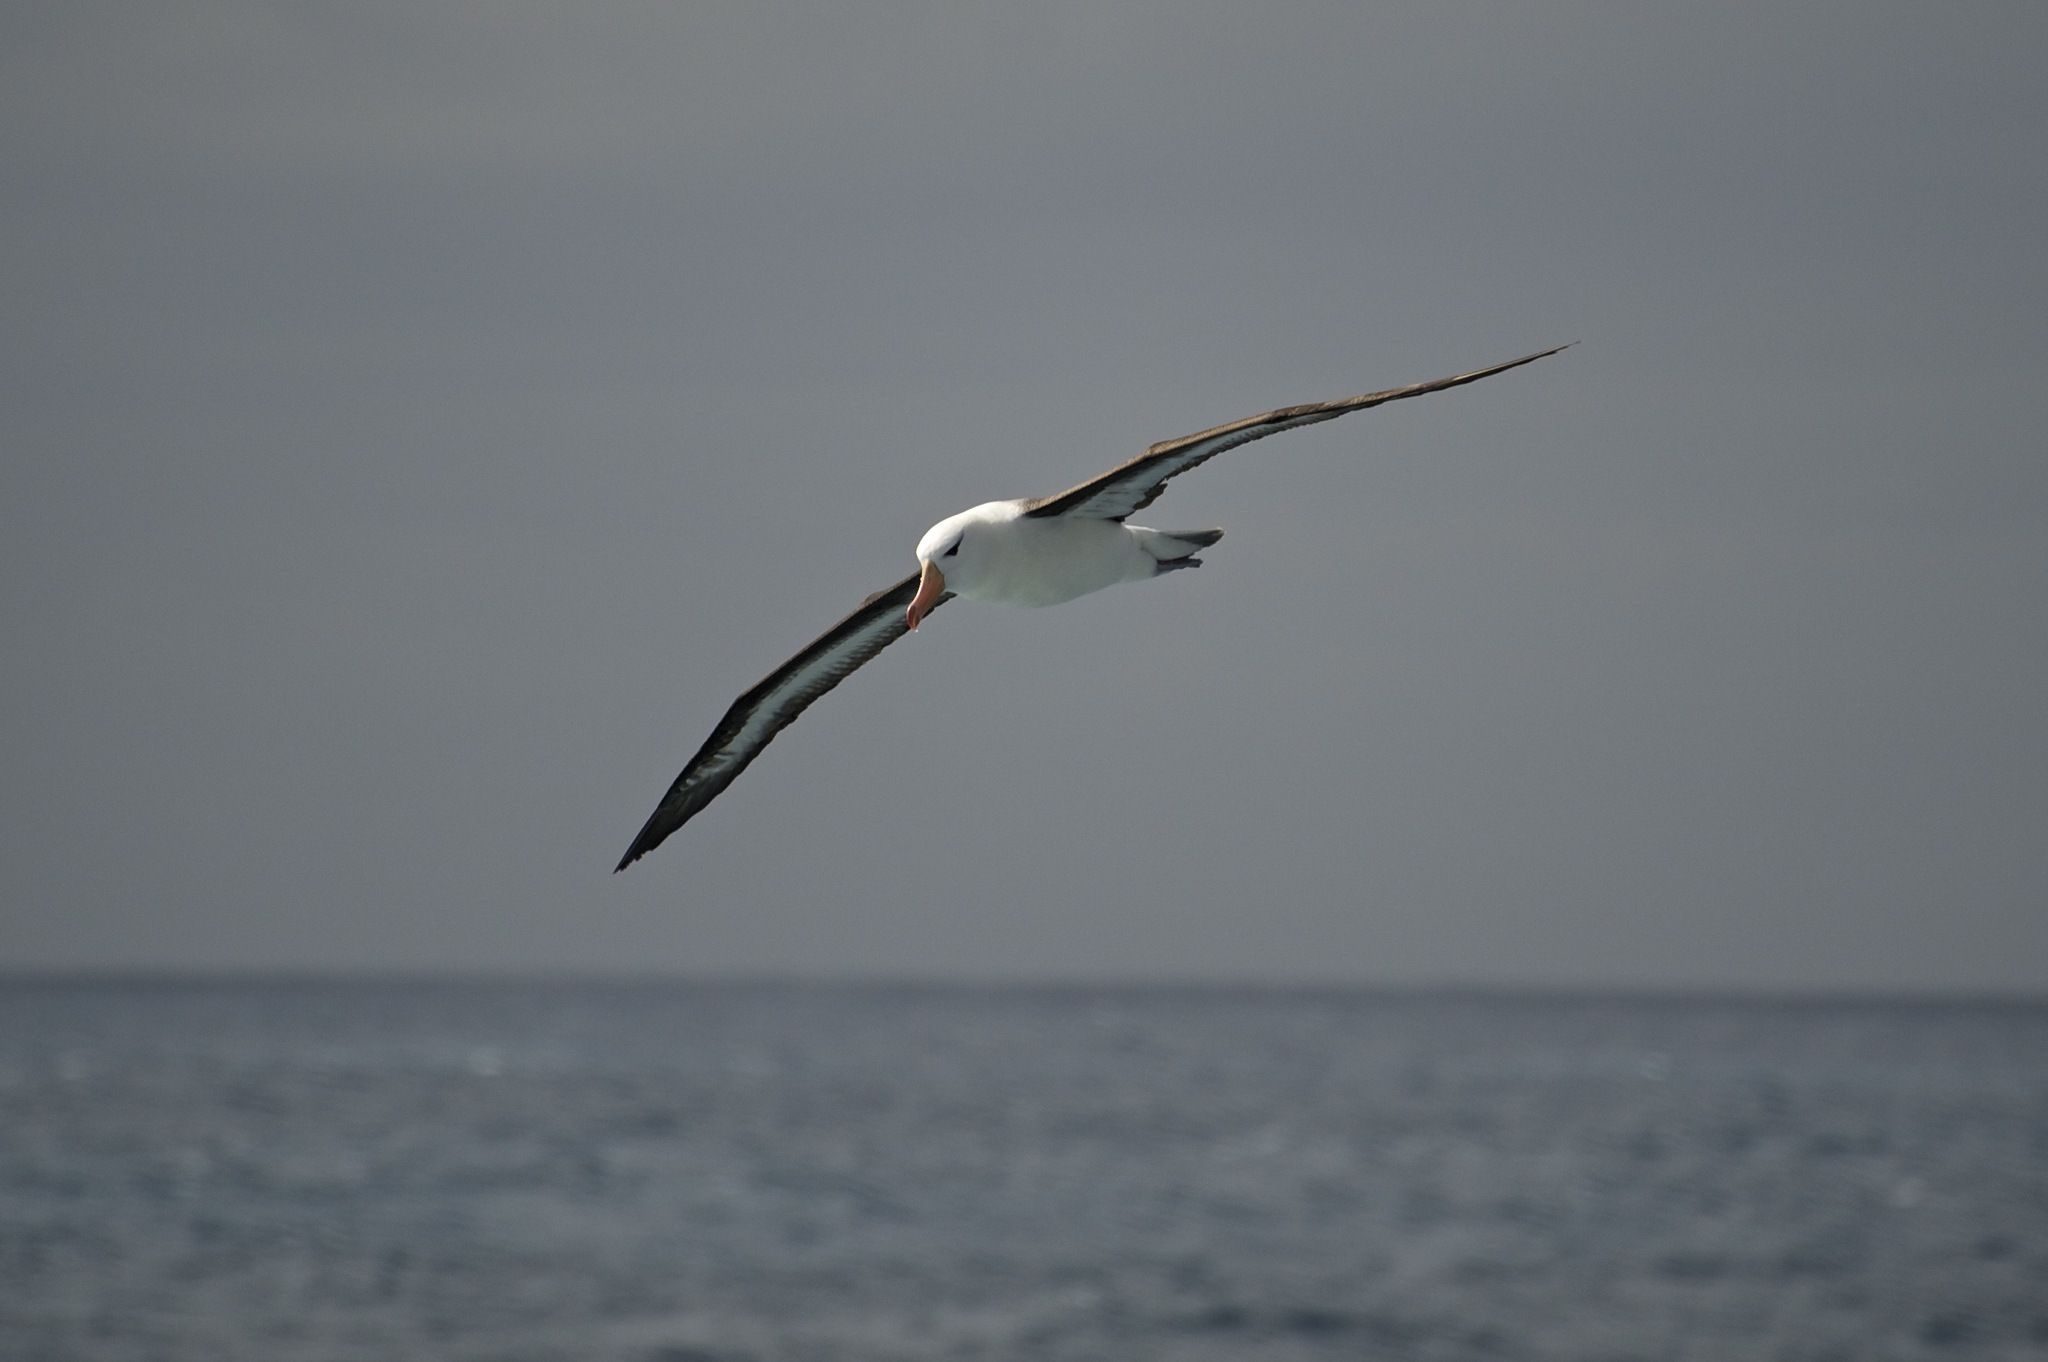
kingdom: Animalia
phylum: Chordata
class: Aves
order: Procellariiformes
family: Diomedeidae
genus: Thalassarche
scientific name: Thalassarche melanophris
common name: Black-browed albatross
